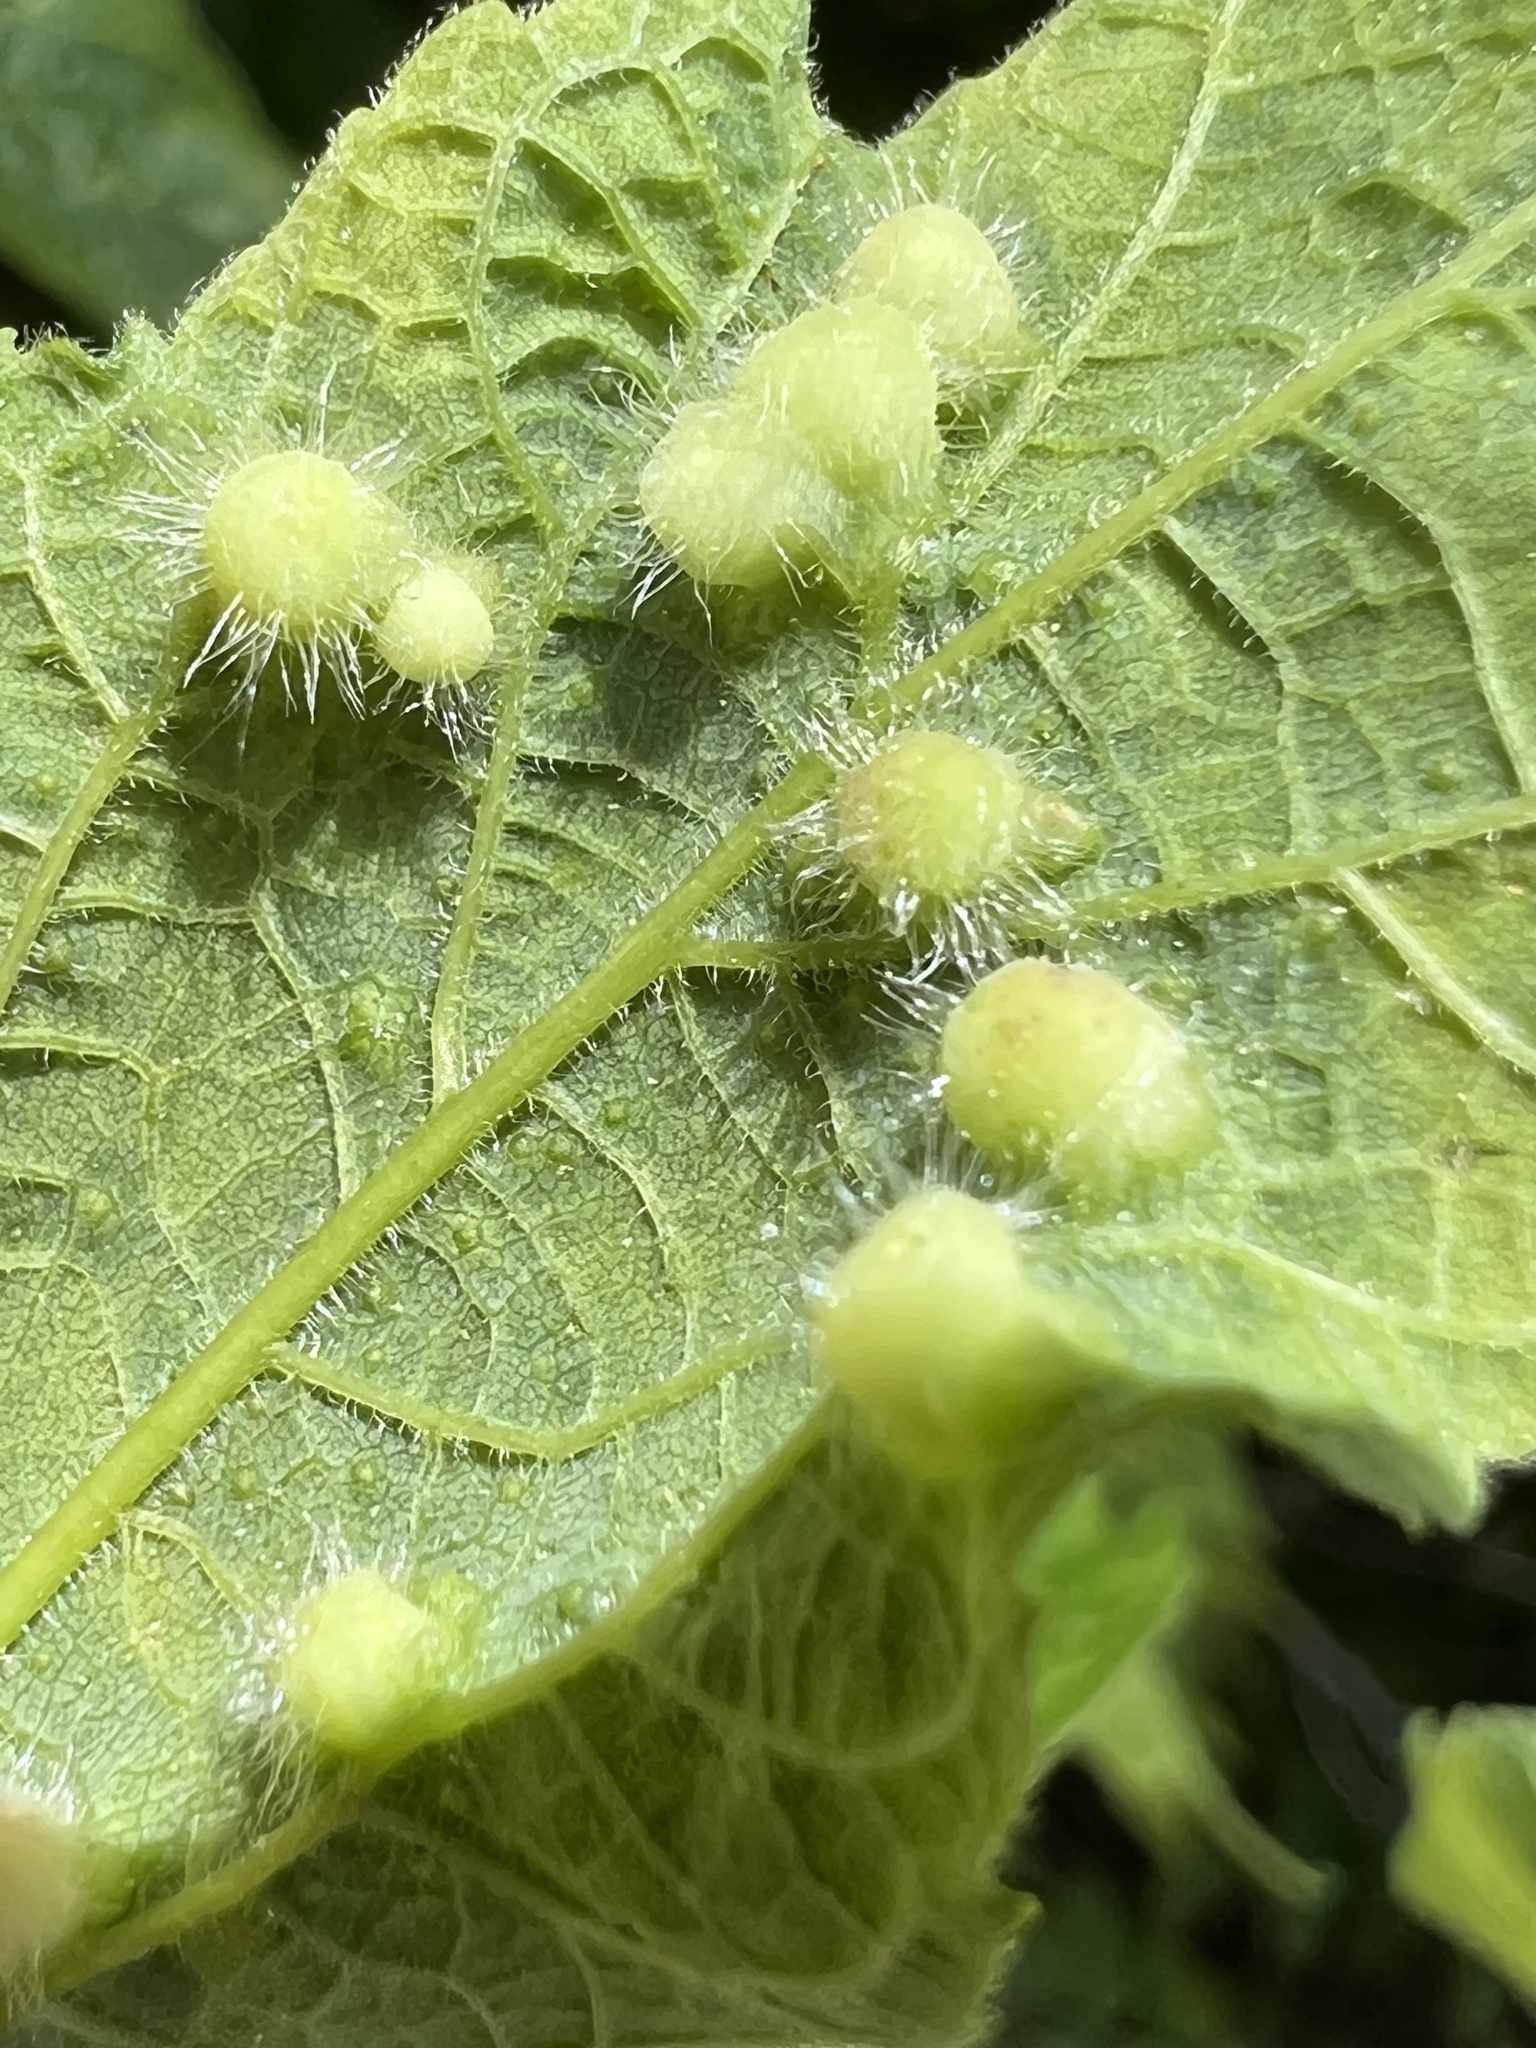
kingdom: Animalia
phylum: Arthropoda
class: Insecta
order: Hemiptera
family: Aphalaridae
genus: Pachypsylla
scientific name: Pachypsylla celtidismamma
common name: Hackberry nipplegall psyllid
